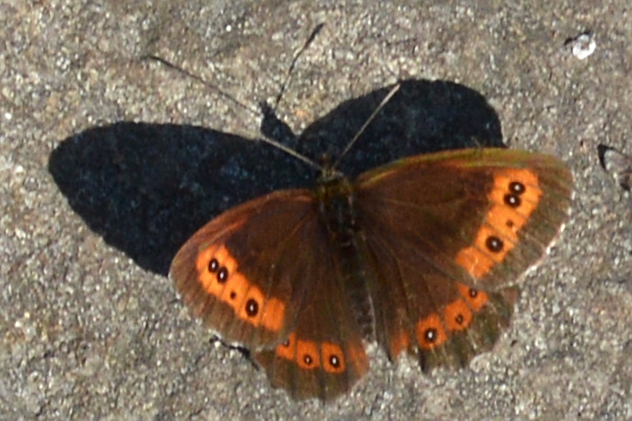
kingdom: Animalia
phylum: Arthropoda
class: Insecta
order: Lepidoptera
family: Nymphalidae
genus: Erebia
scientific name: Erebia ligea
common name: Arran brown
